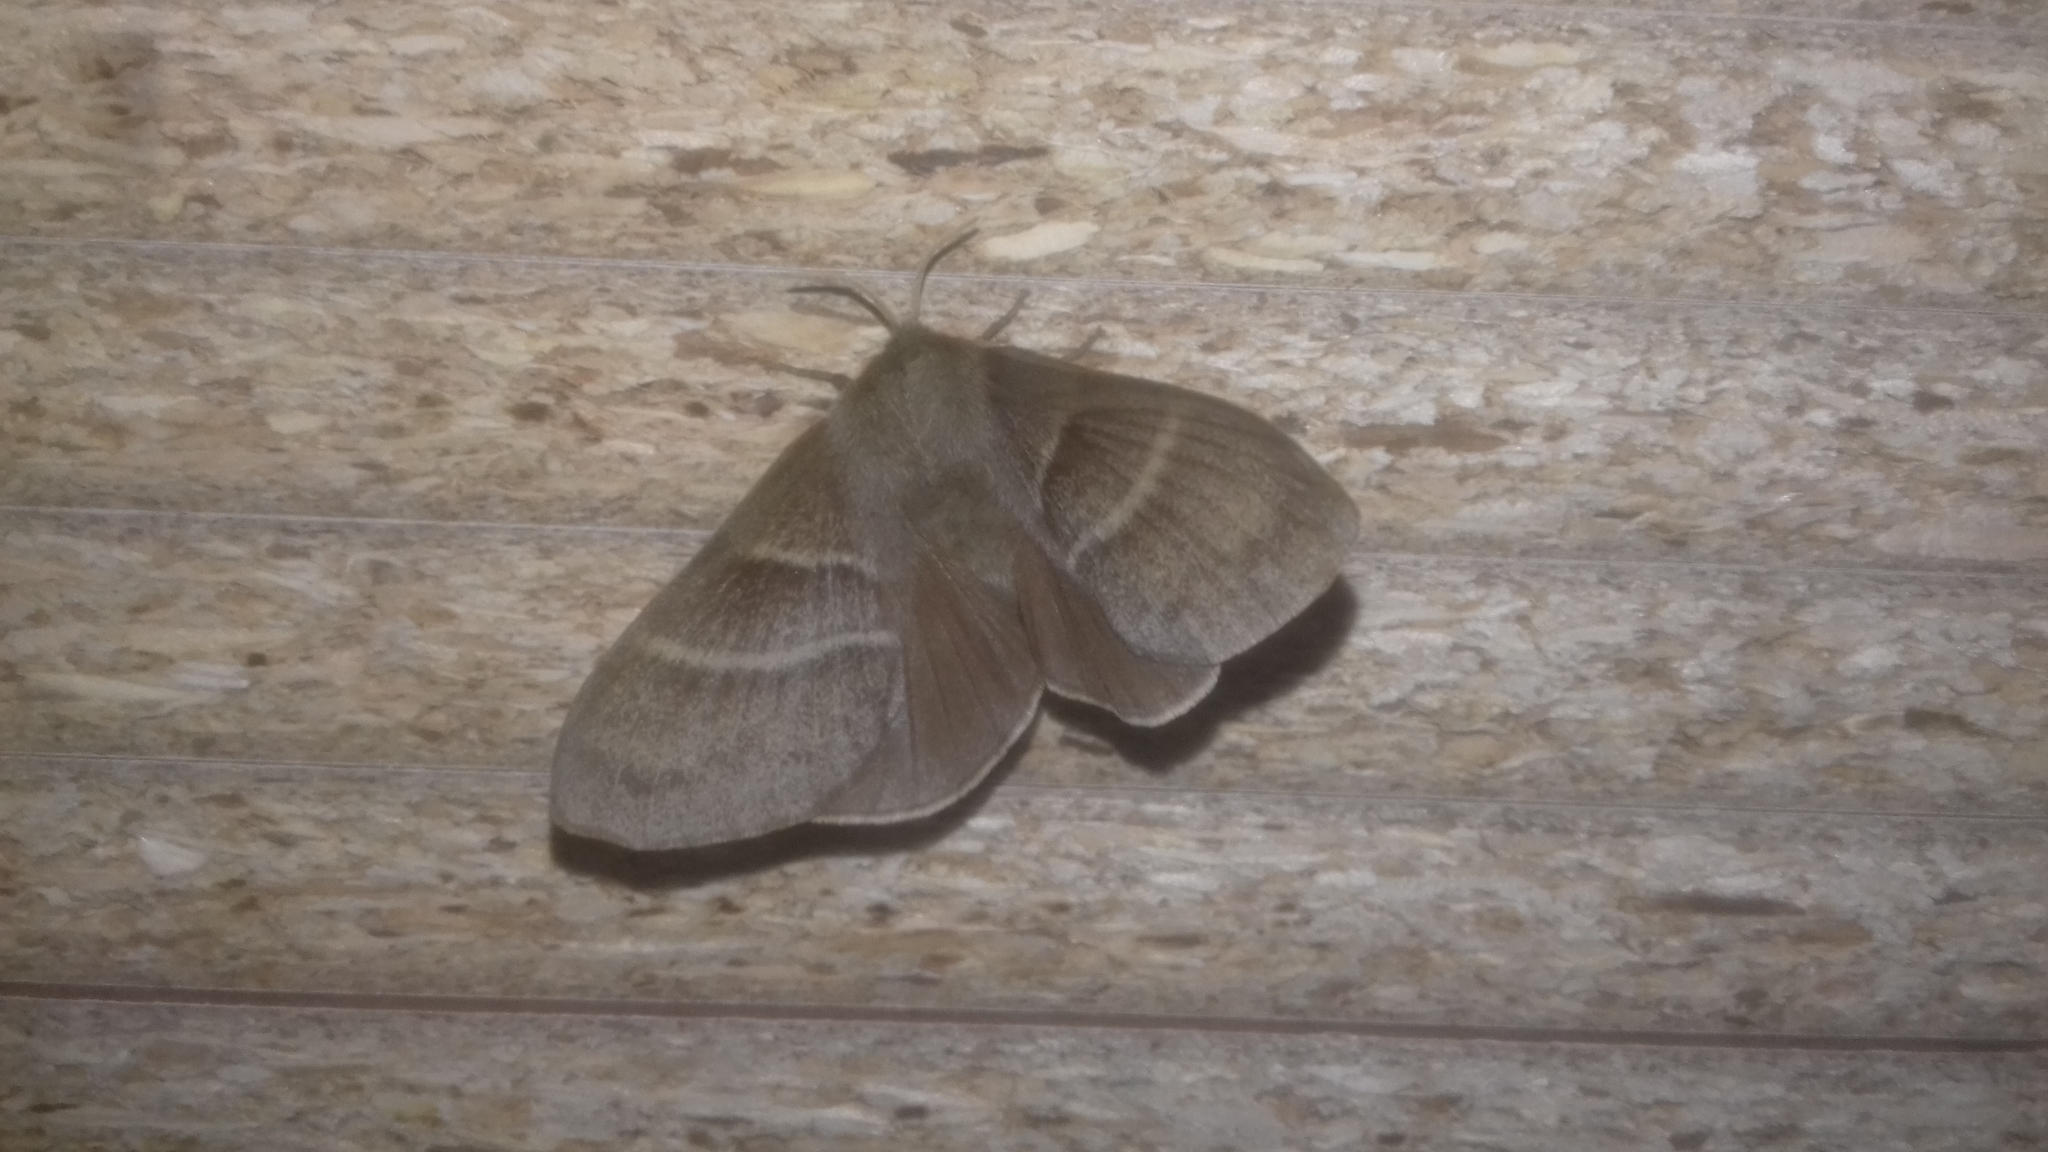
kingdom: Animalia
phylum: Arthropoda
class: Insecta
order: Lepidoptera
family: Lasiocampidae
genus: Macrothylacia
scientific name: Macrothylacia rubi
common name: Fox moth
